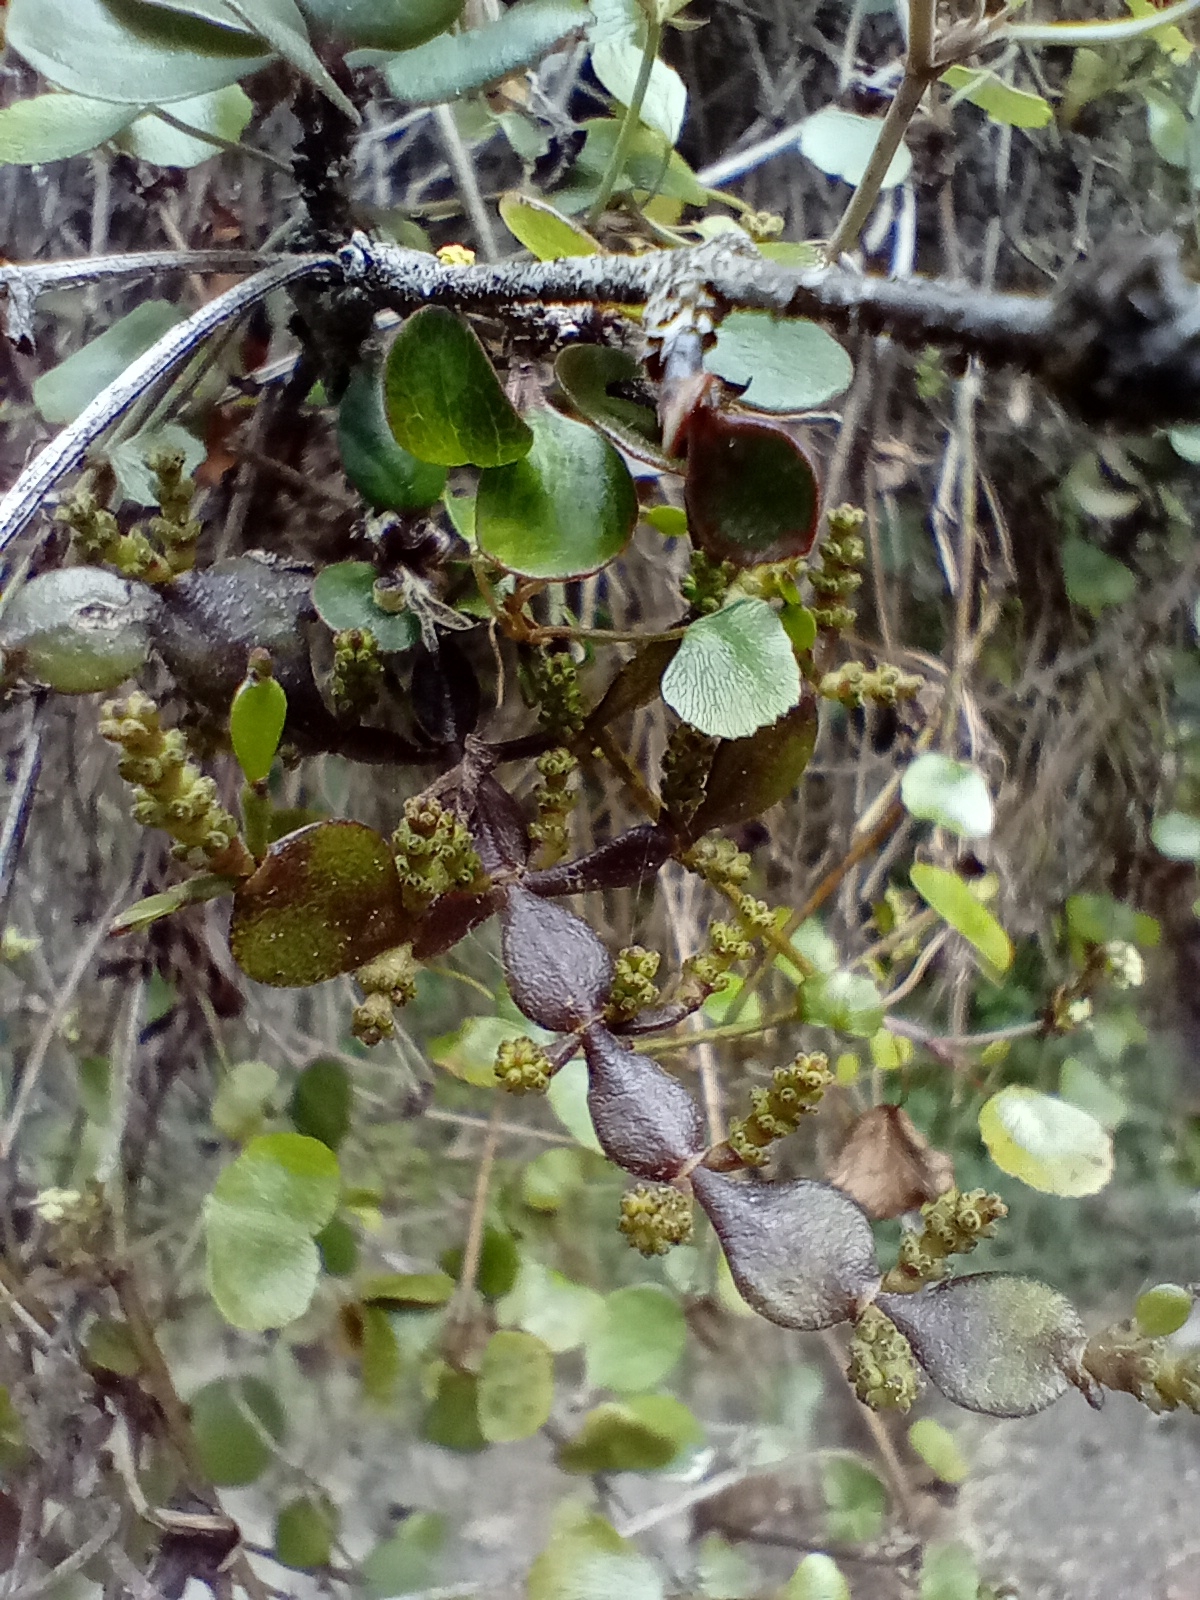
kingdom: Plantae
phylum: Tracheophyta
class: Magnoliopsida
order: Santalales
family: Viscaceae
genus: Korthalsella
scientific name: Korthalsella lindsayi
